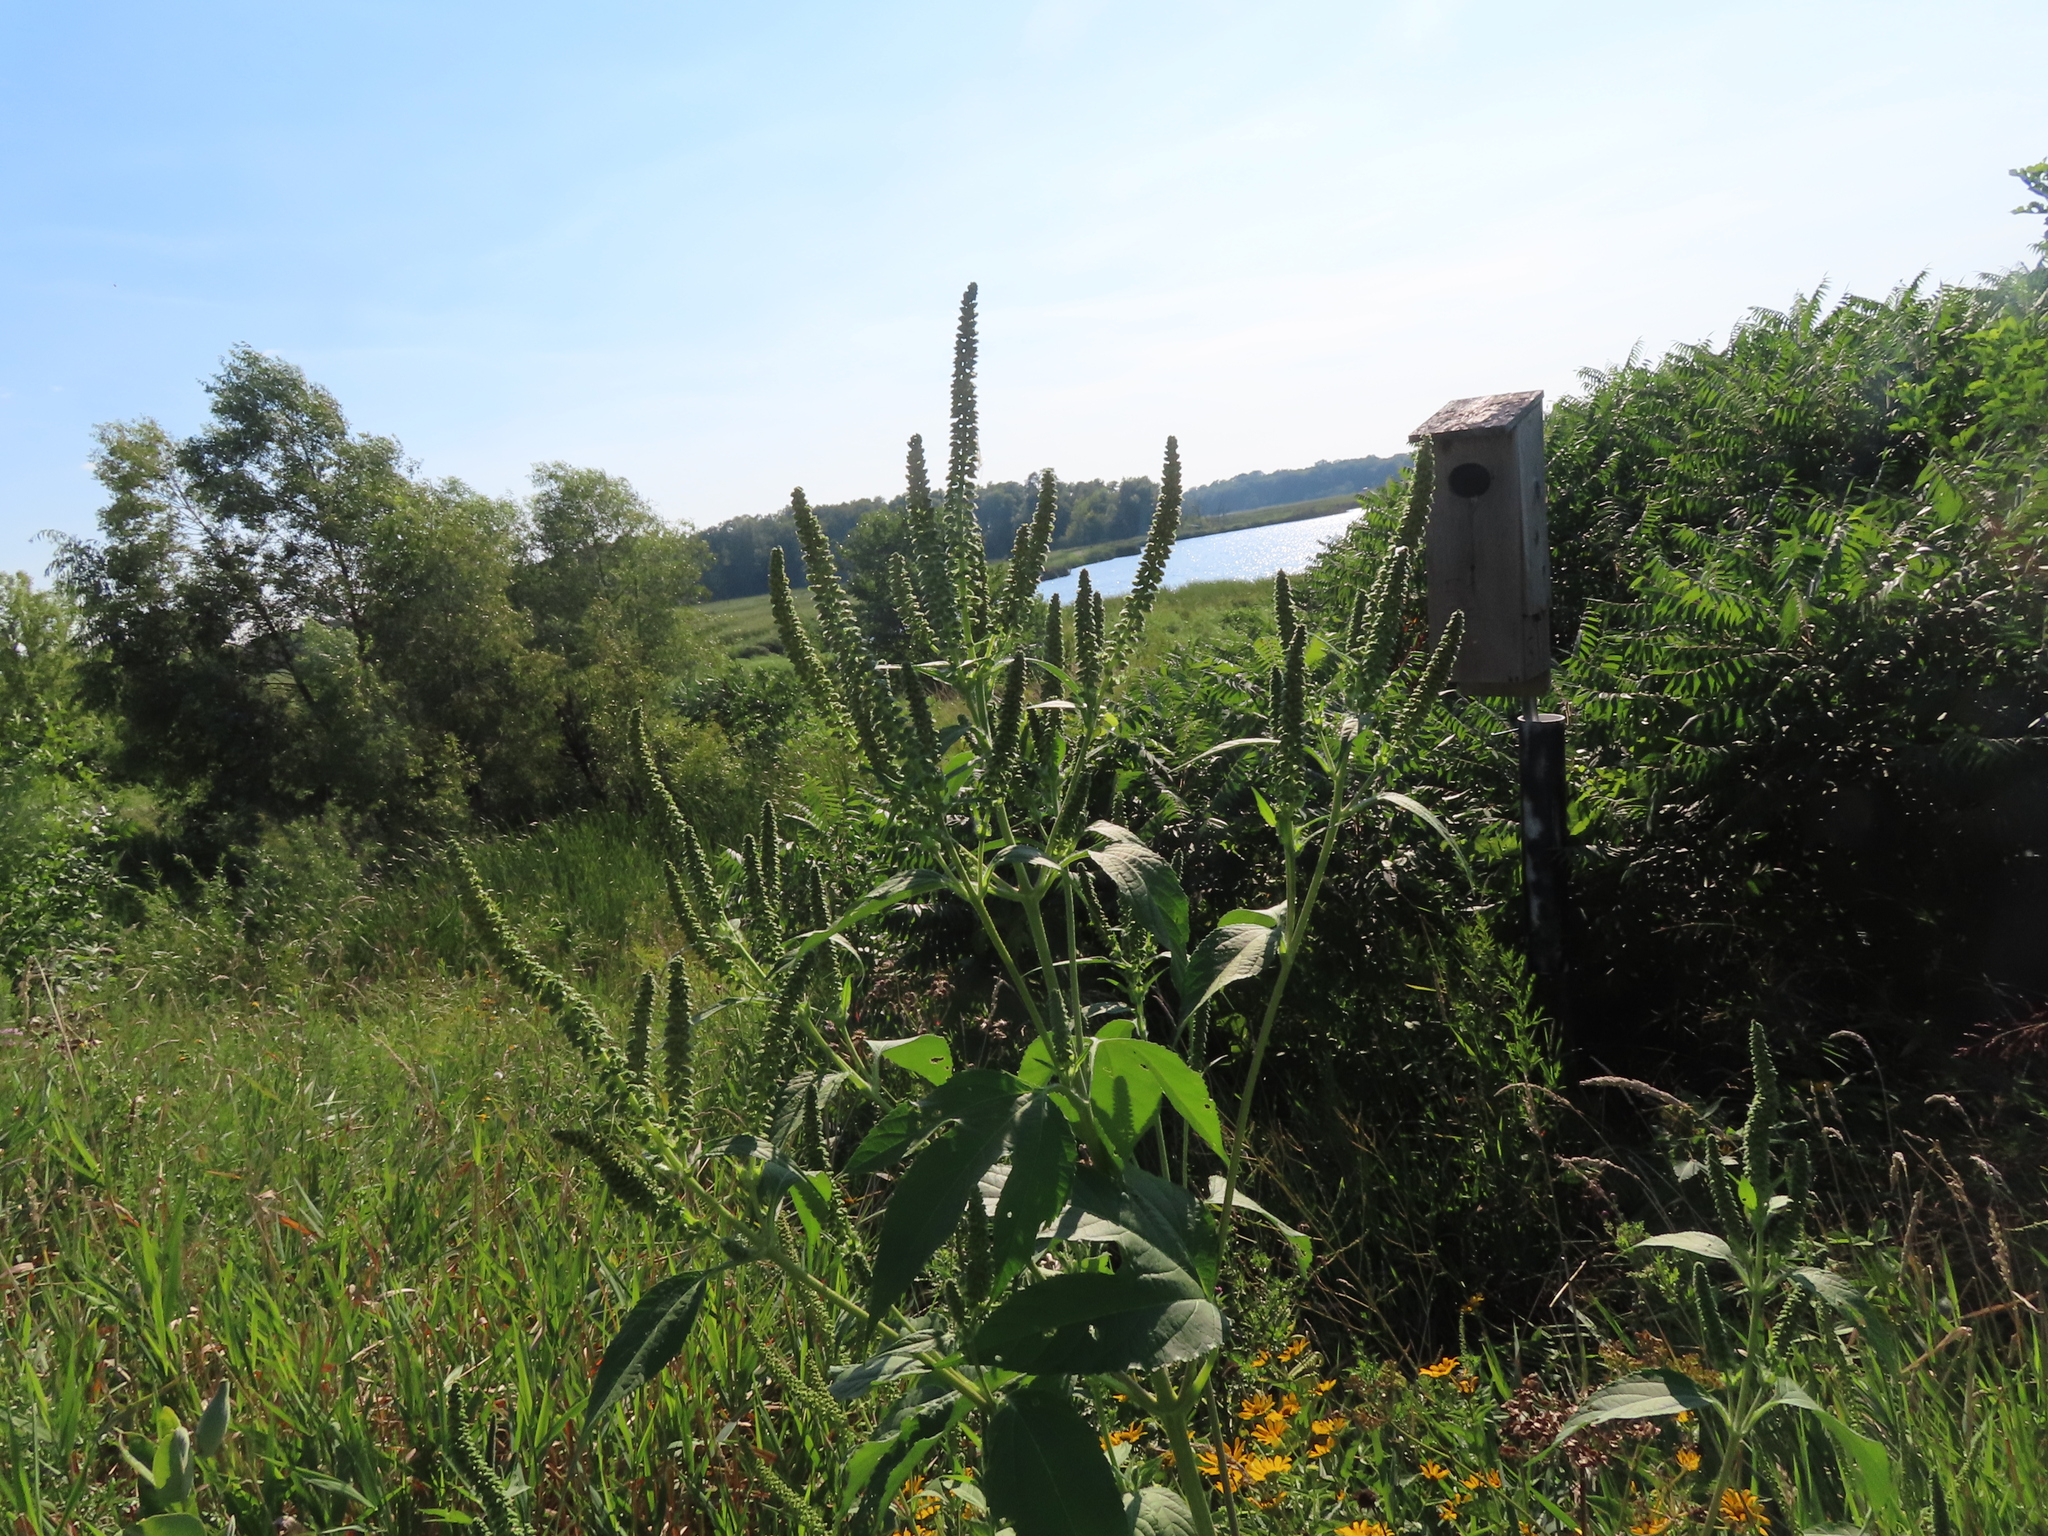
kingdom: Plantae
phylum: Tracheophyta
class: Magnoliopsida
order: Asterales
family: Asteraceae
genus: Ambrosia
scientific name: Ambrosia trifida
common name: Giant ragweed
